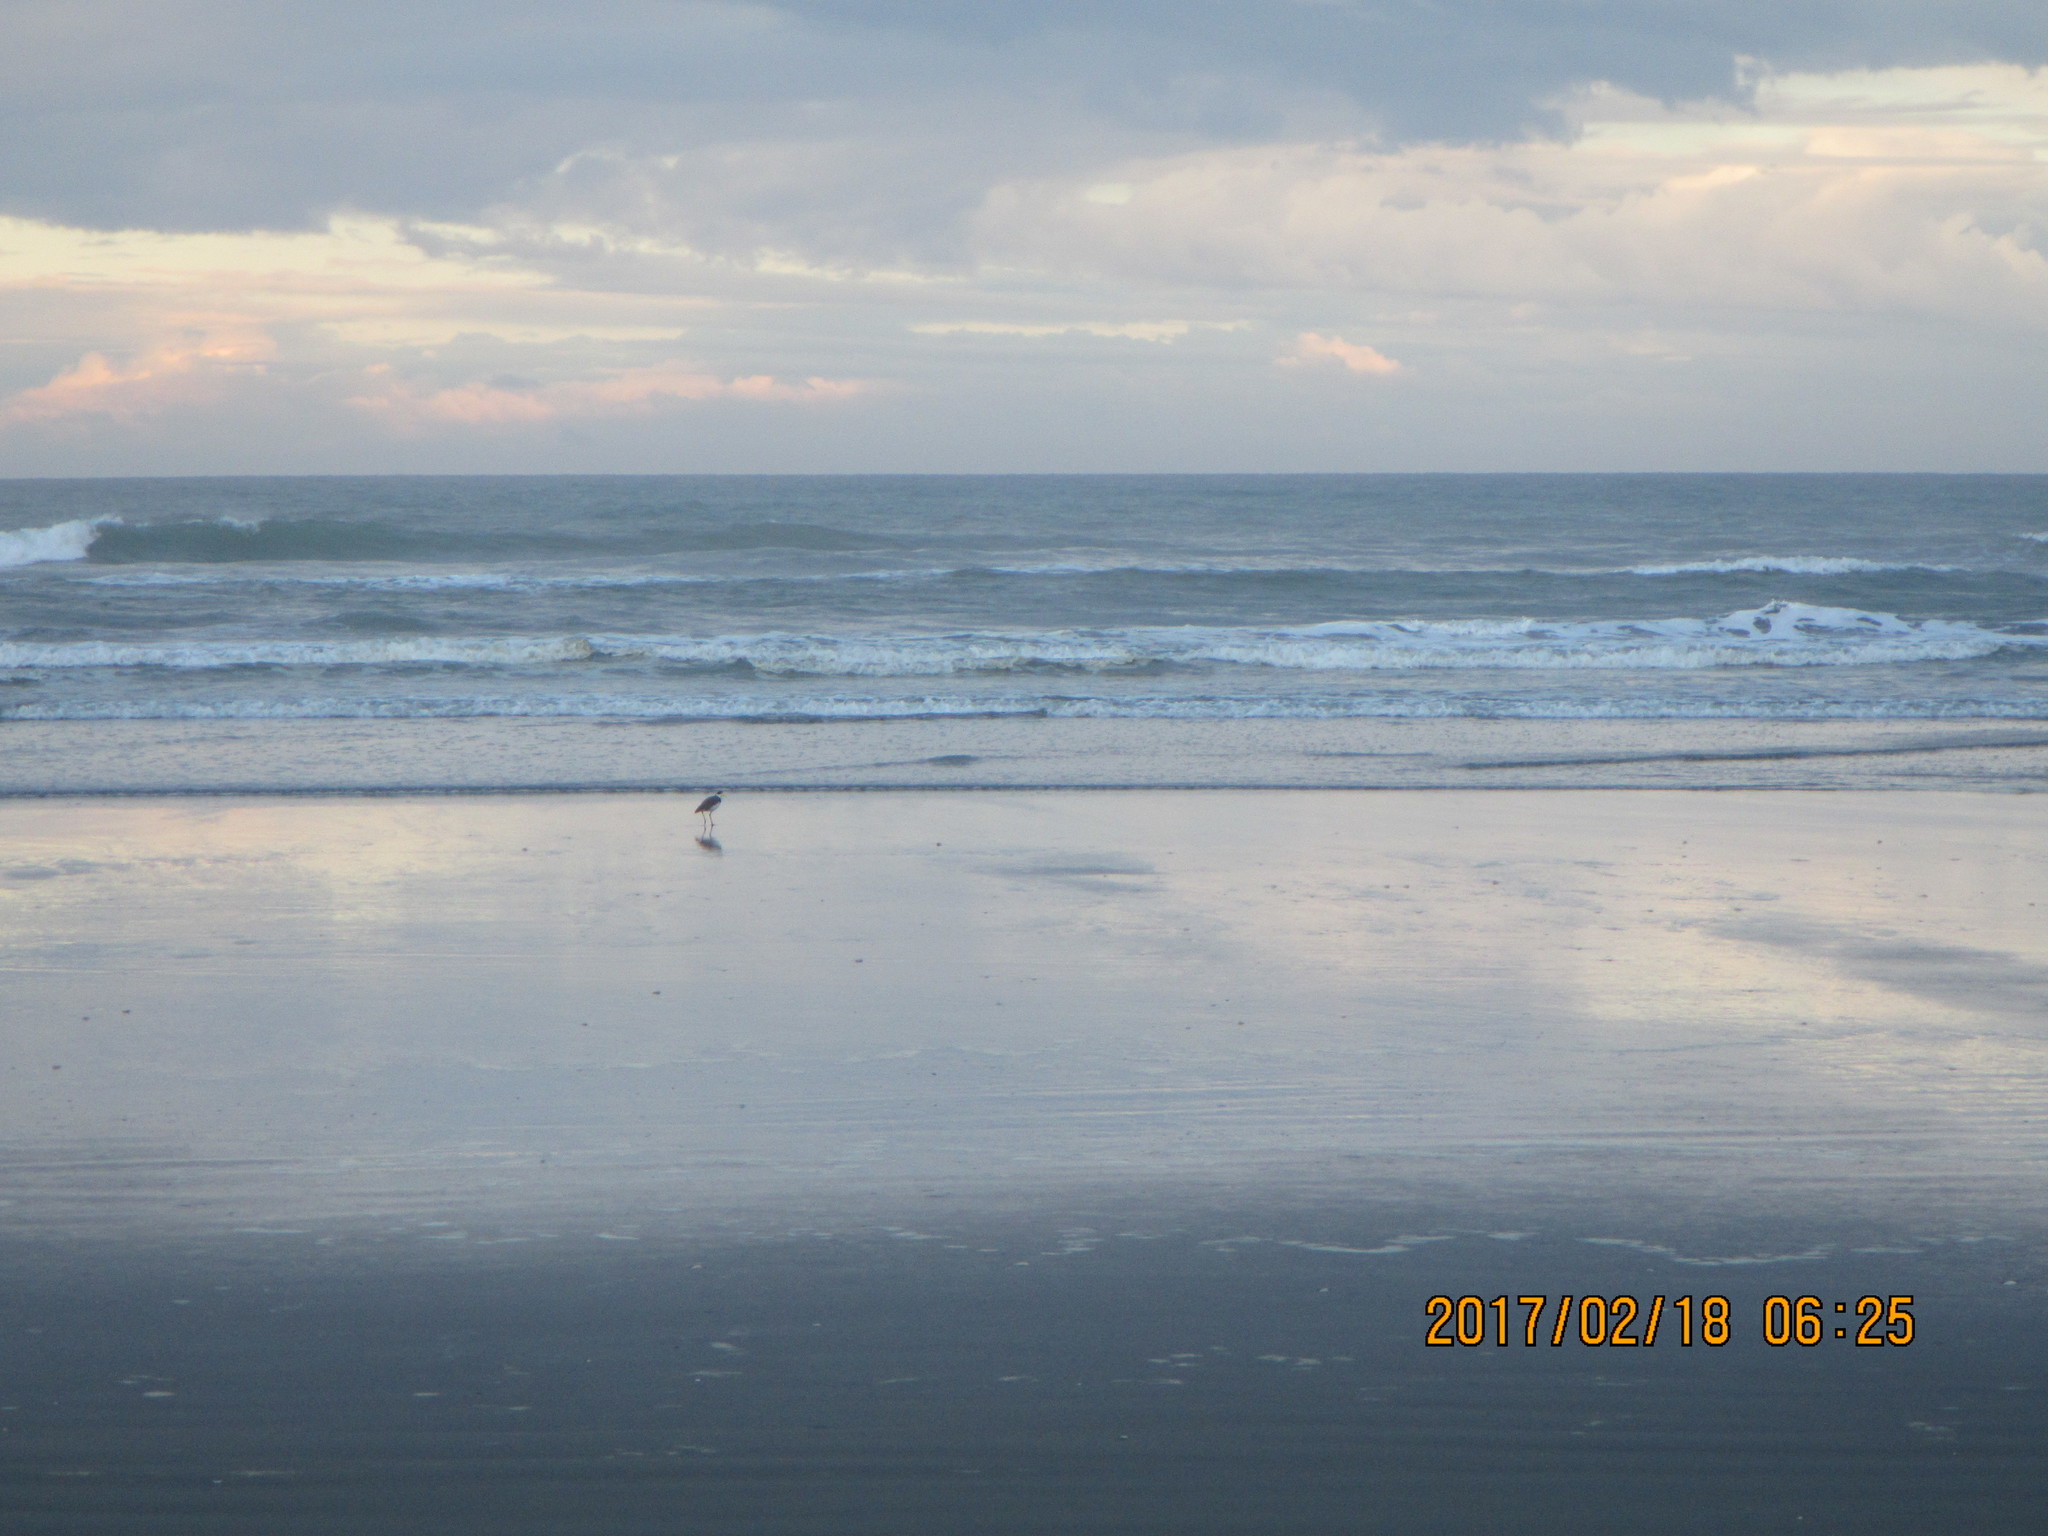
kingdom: Animalia
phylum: Chordata
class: Aves
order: Charadriiformes
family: Charadriidae
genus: Vanellus
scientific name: Vanellus miles
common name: Masked lapwing
